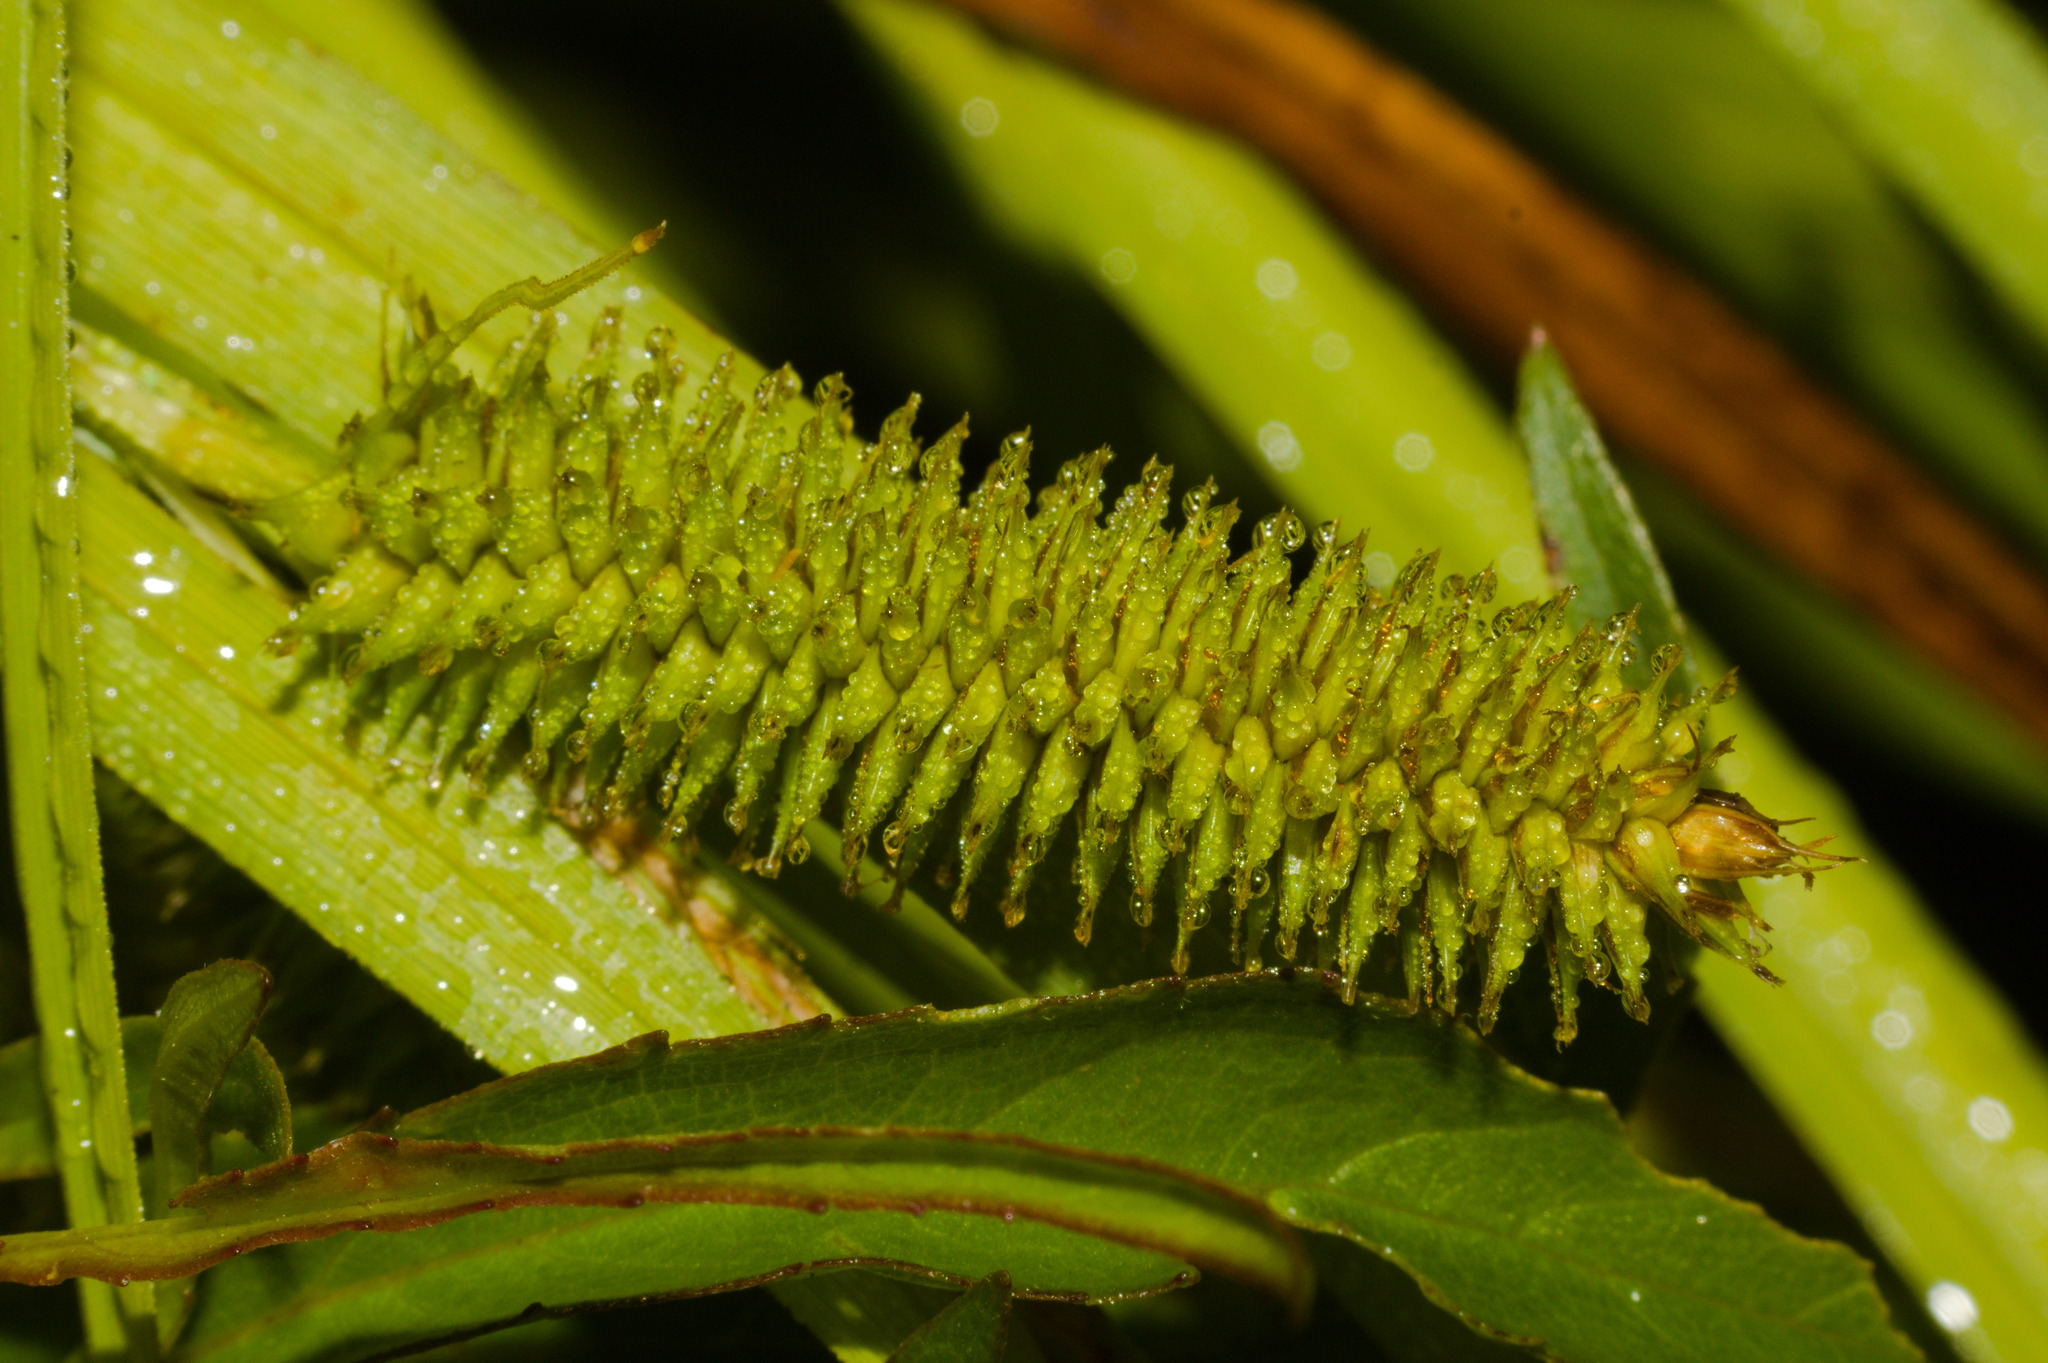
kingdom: Plantae
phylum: Tracheophyta
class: Liliopsida
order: Poales
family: Cyperaceae
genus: Carex
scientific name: Carex polysticha
